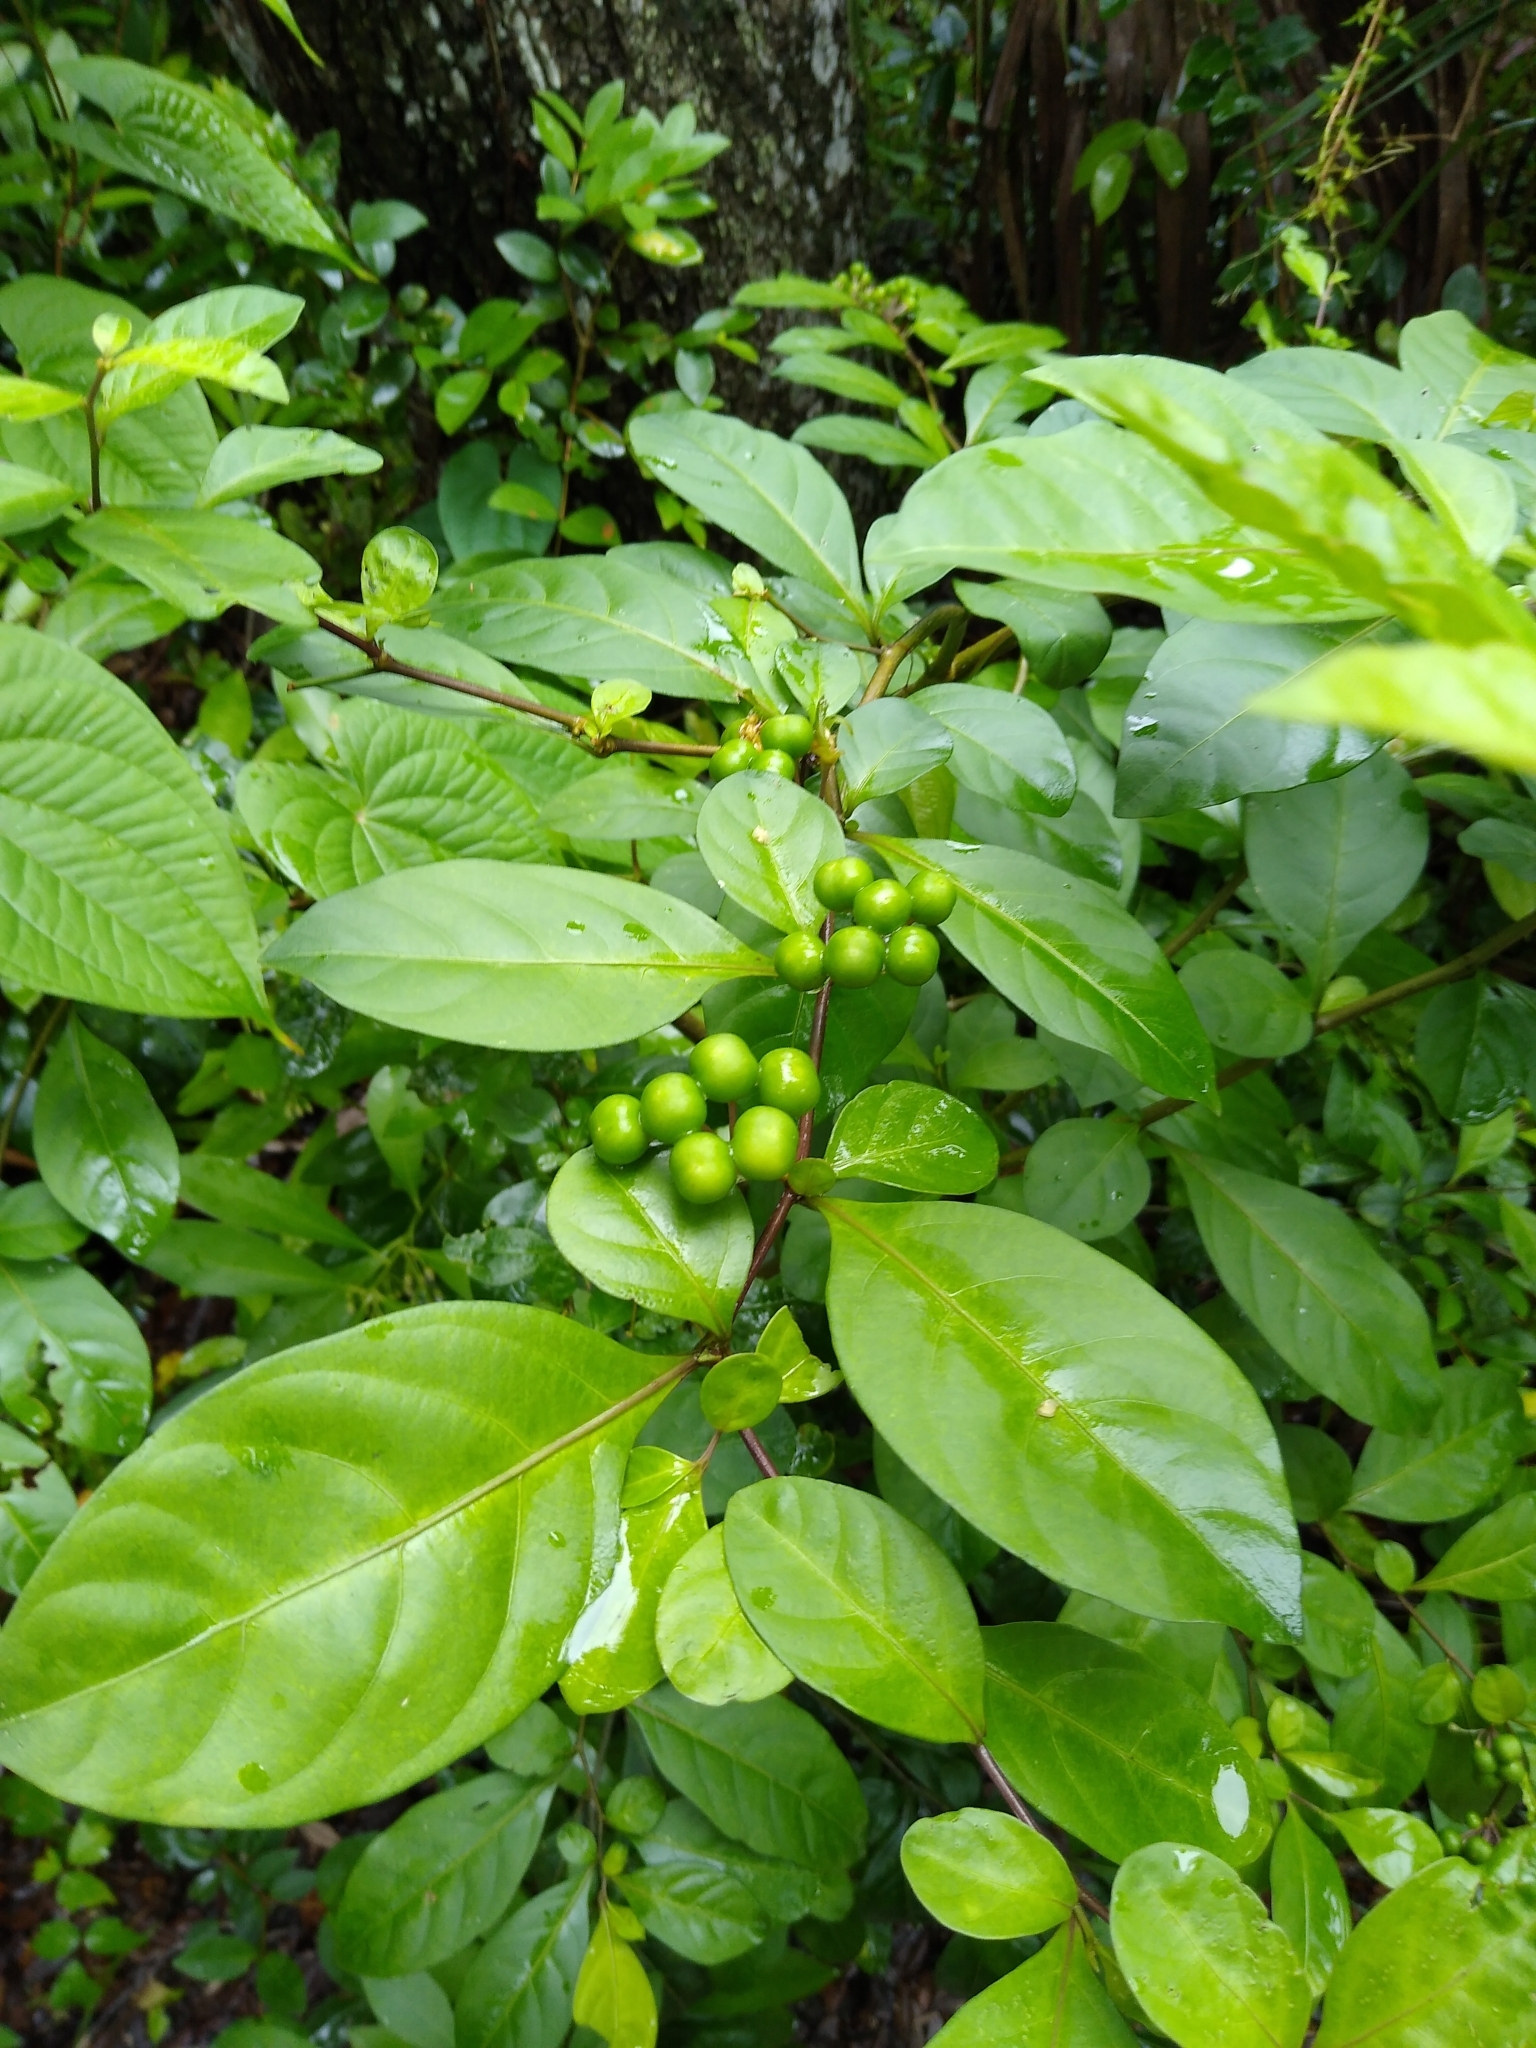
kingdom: Plantae
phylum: Tracheophyta
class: Magnoliopsida
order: Solanales
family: Solanaceae
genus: Solanum
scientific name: Solanum diphyllum
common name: Twoleaf nightshade
